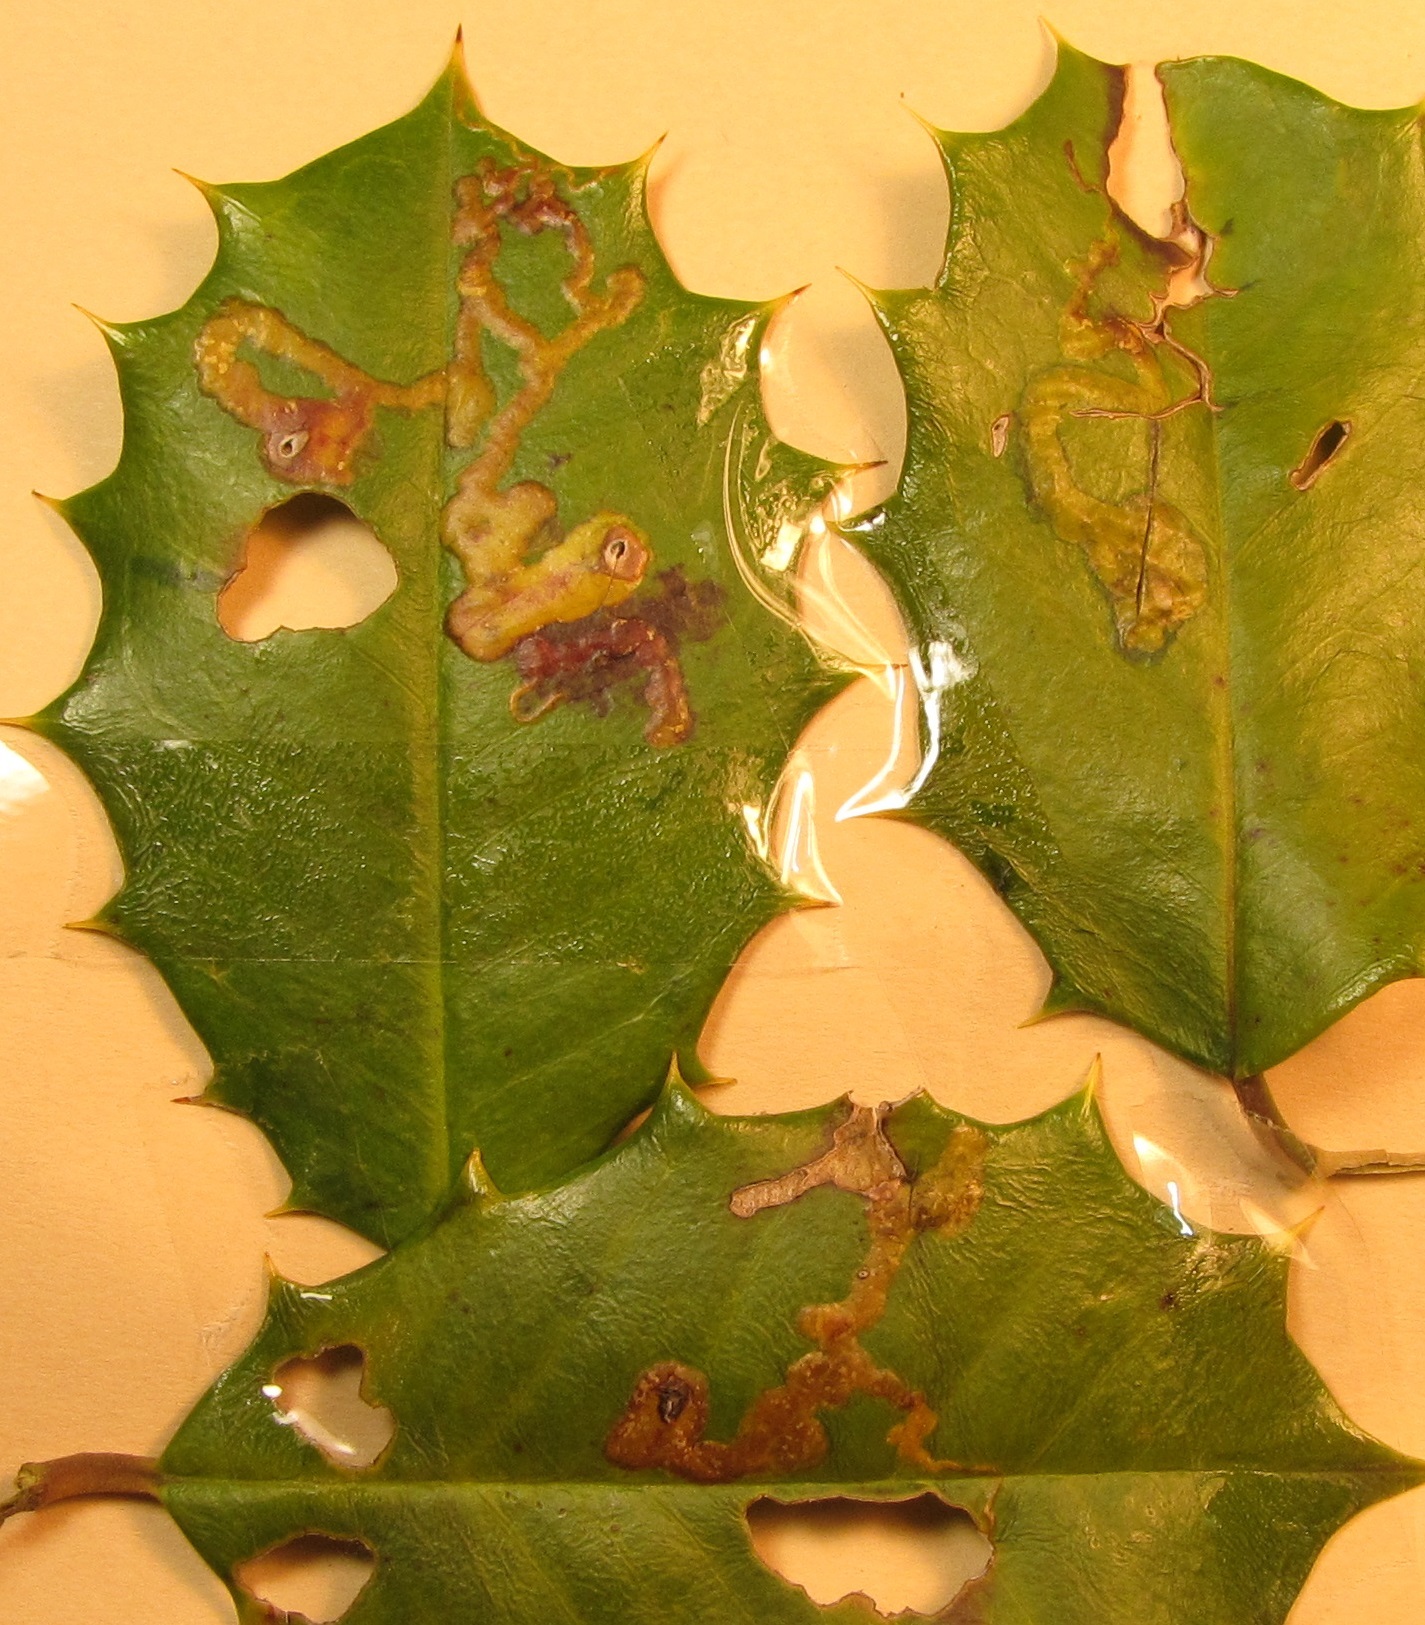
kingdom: Animalia
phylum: Arthropoda
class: Insecta
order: Diptera
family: Agromyzidae
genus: Phytomyza
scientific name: Phytomyza ilicicola
